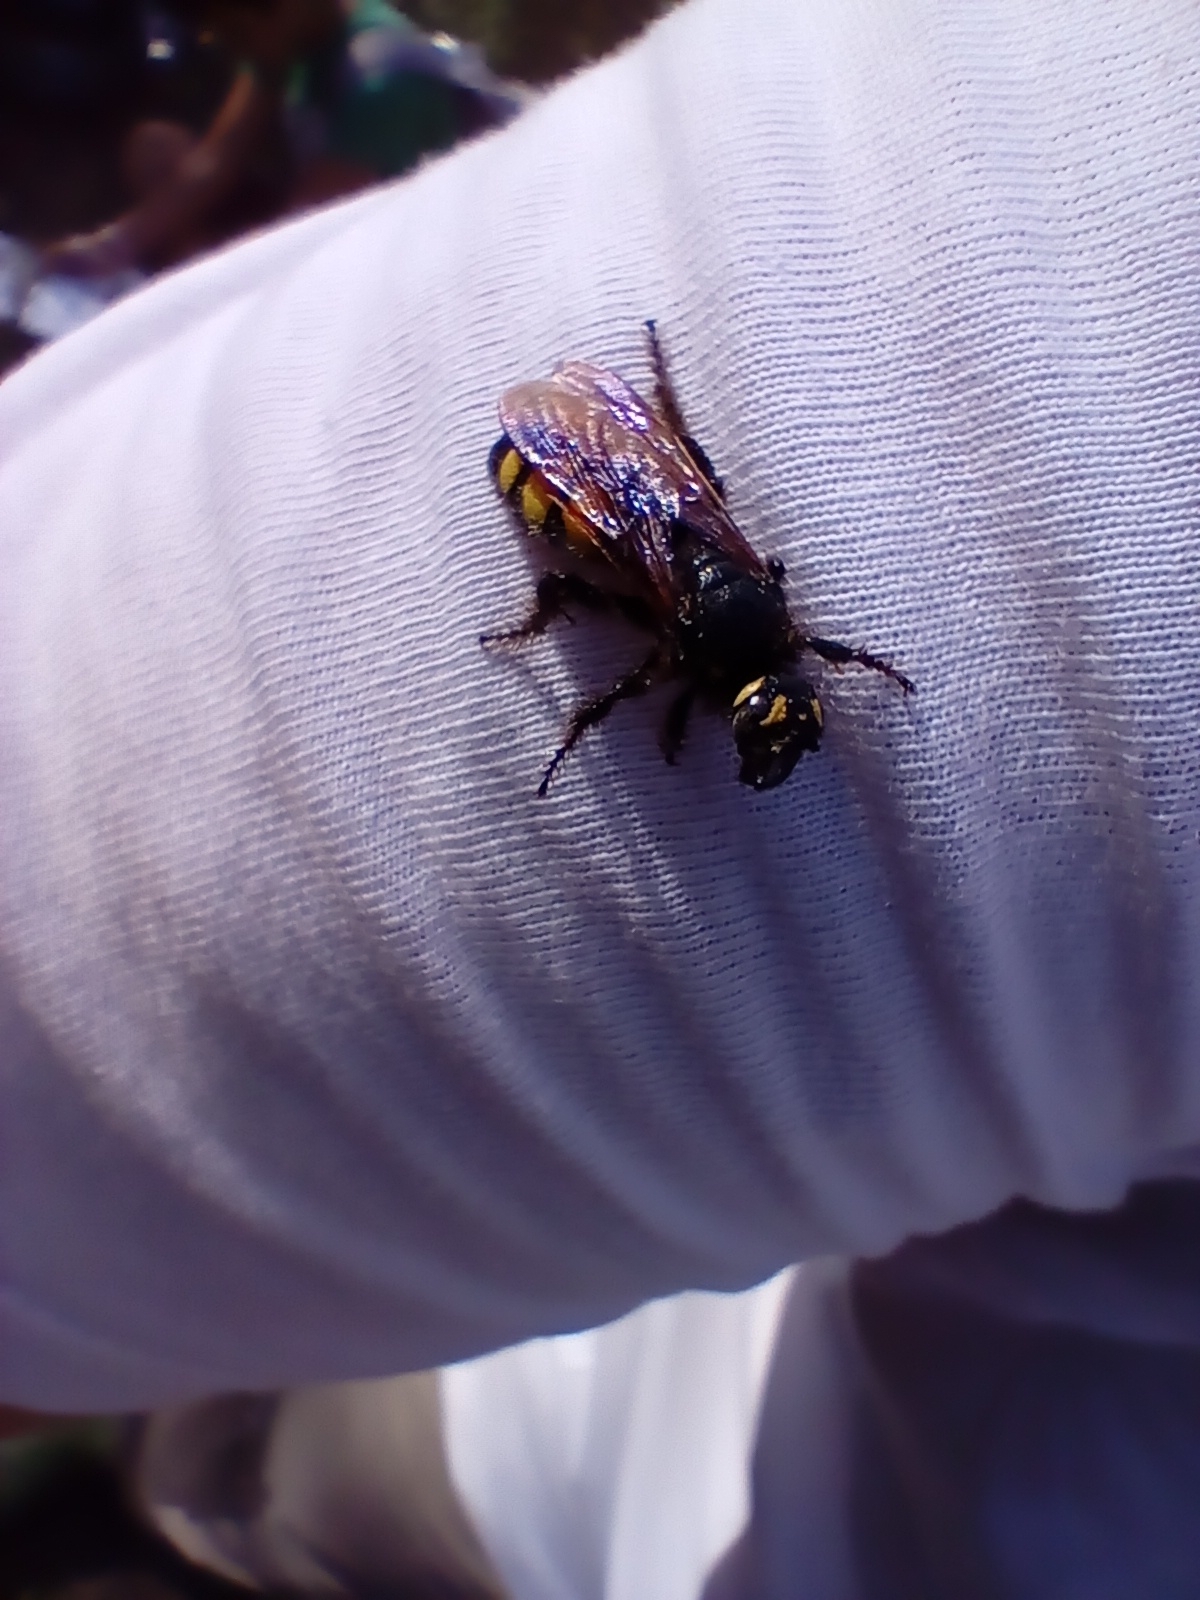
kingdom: Animalia
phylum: Arthropoda
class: Insecta
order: Hymenoptera
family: Vespidae
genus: Vespa
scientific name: Vespa sexmaculata
